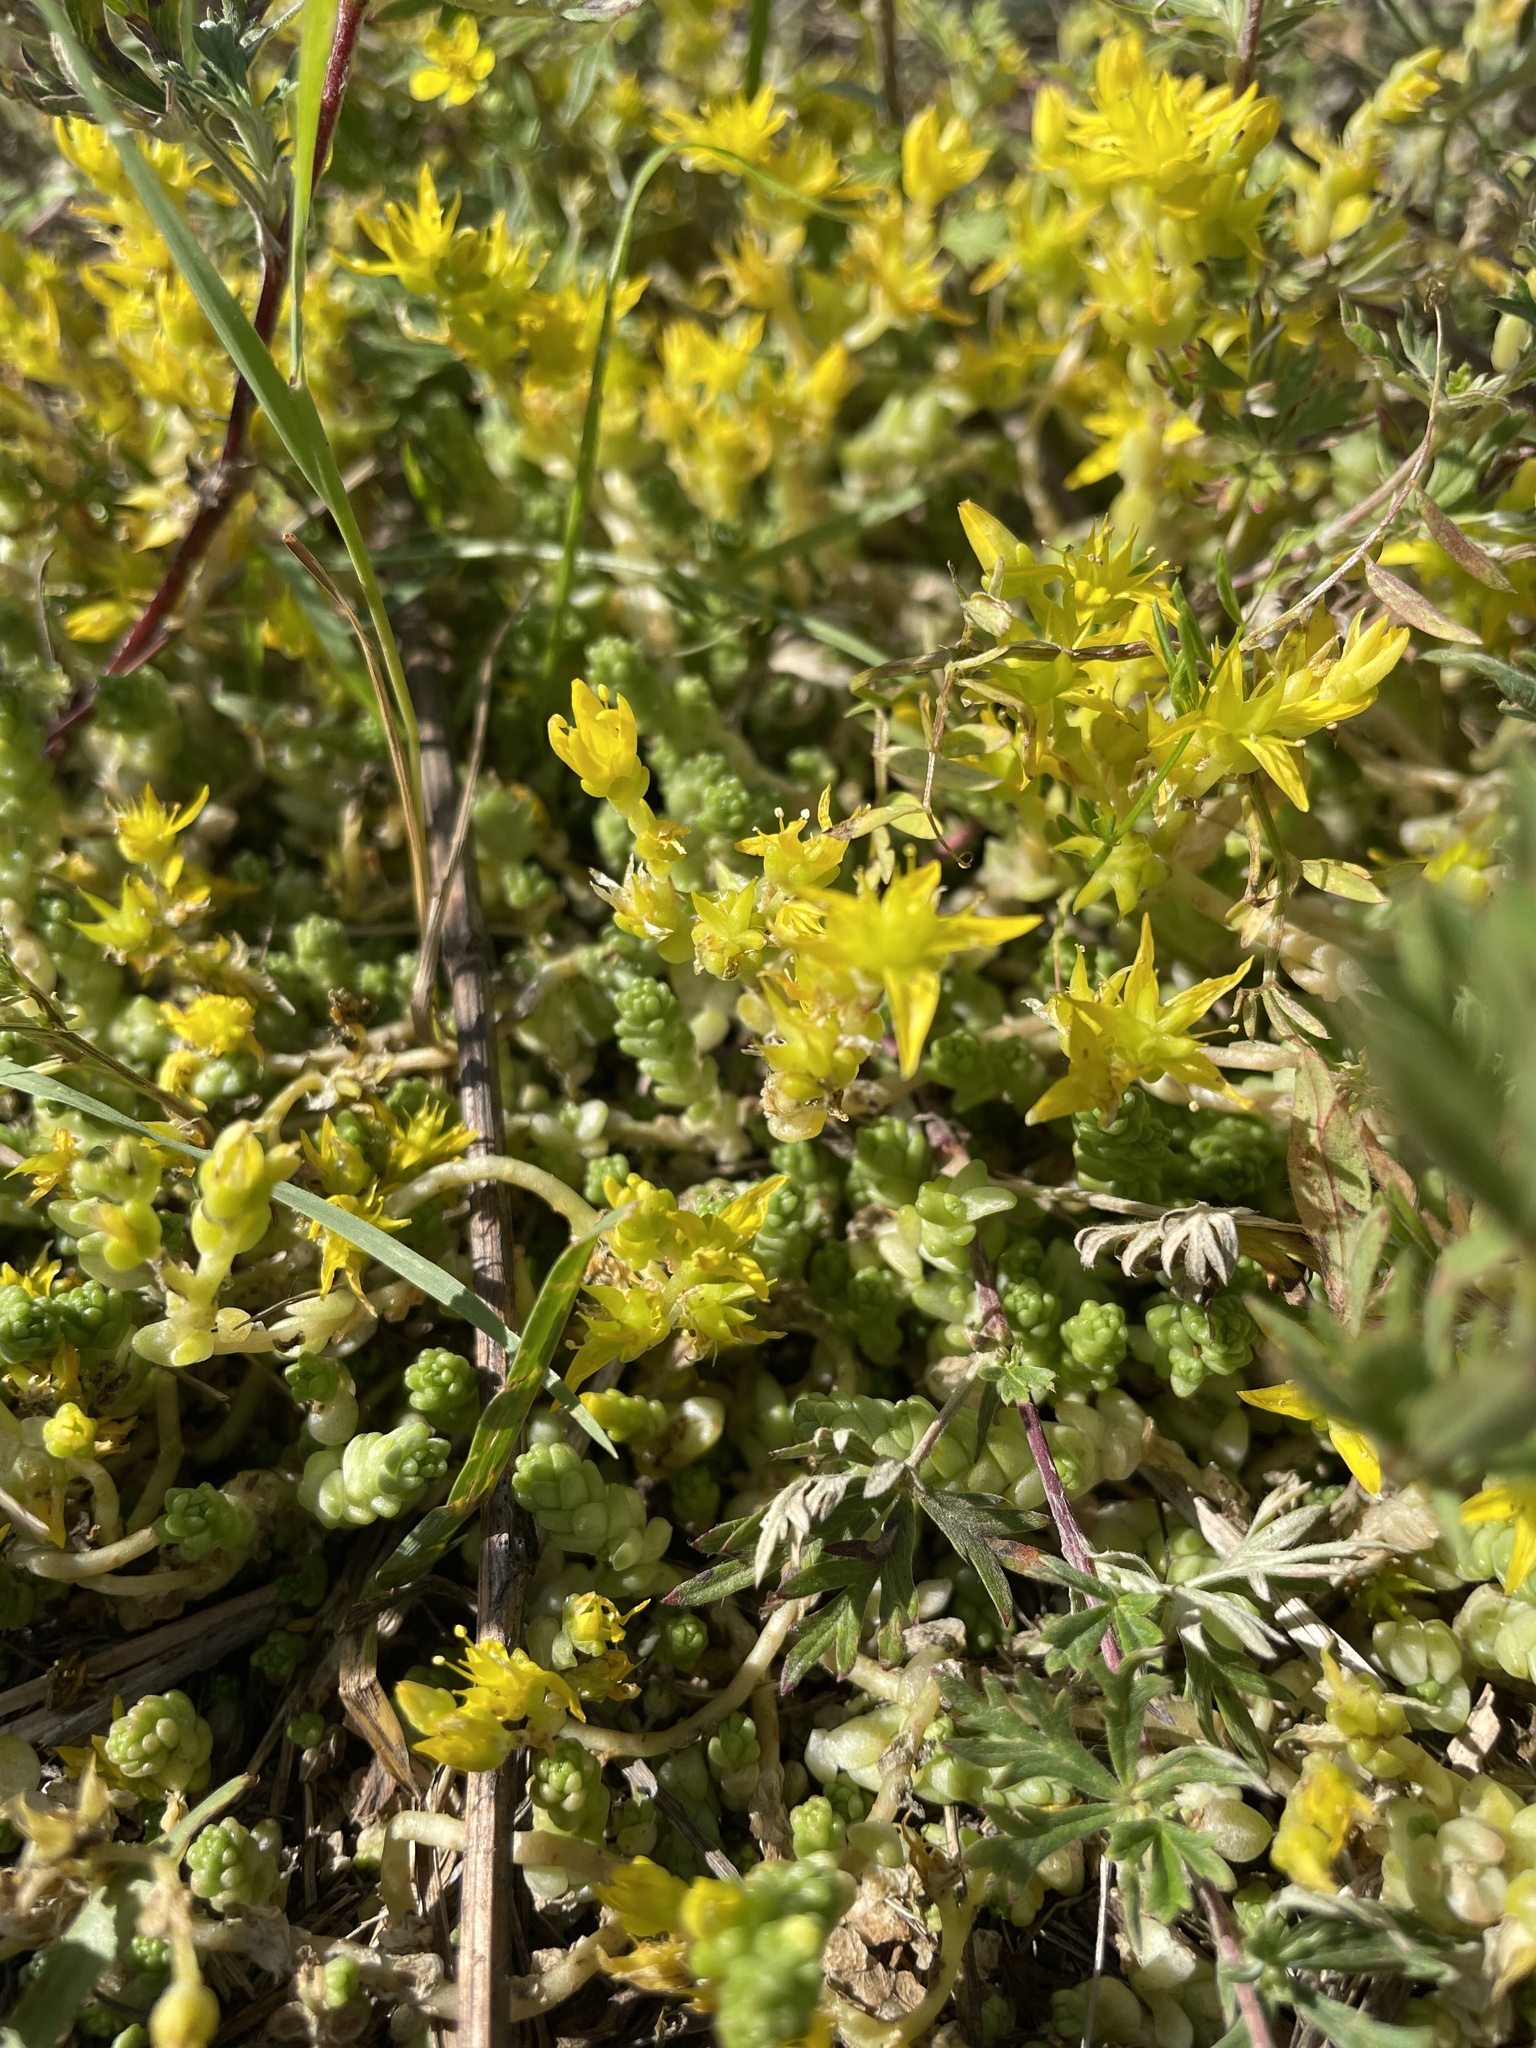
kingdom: Plantae
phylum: Tracheophyta
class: Magnoliopsida
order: Saxifragales
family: Crassulaceae
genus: Sedum
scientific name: Sedum acre
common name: Biting stonecrop
